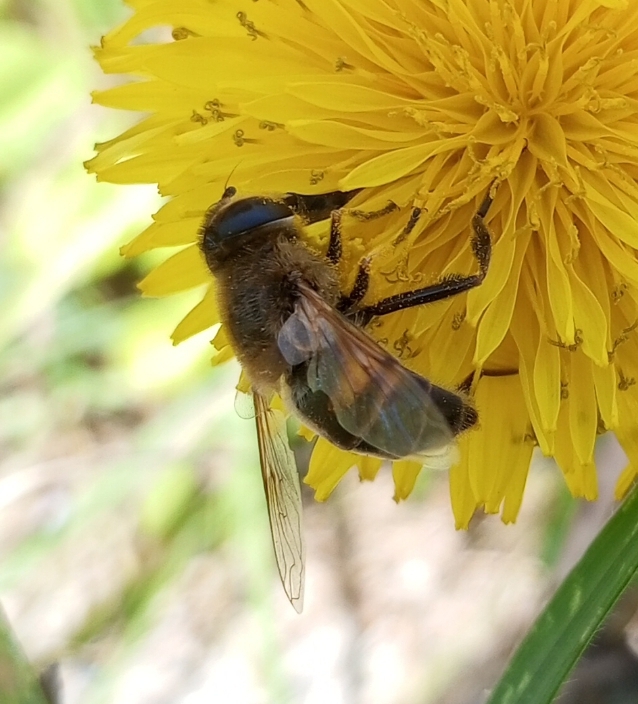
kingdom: Animalia
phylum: Arthropoda
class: Insecta
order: Diptera
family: Syrphidae
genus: Eristalis
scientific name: Eristalis tenax
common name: Drone fly
